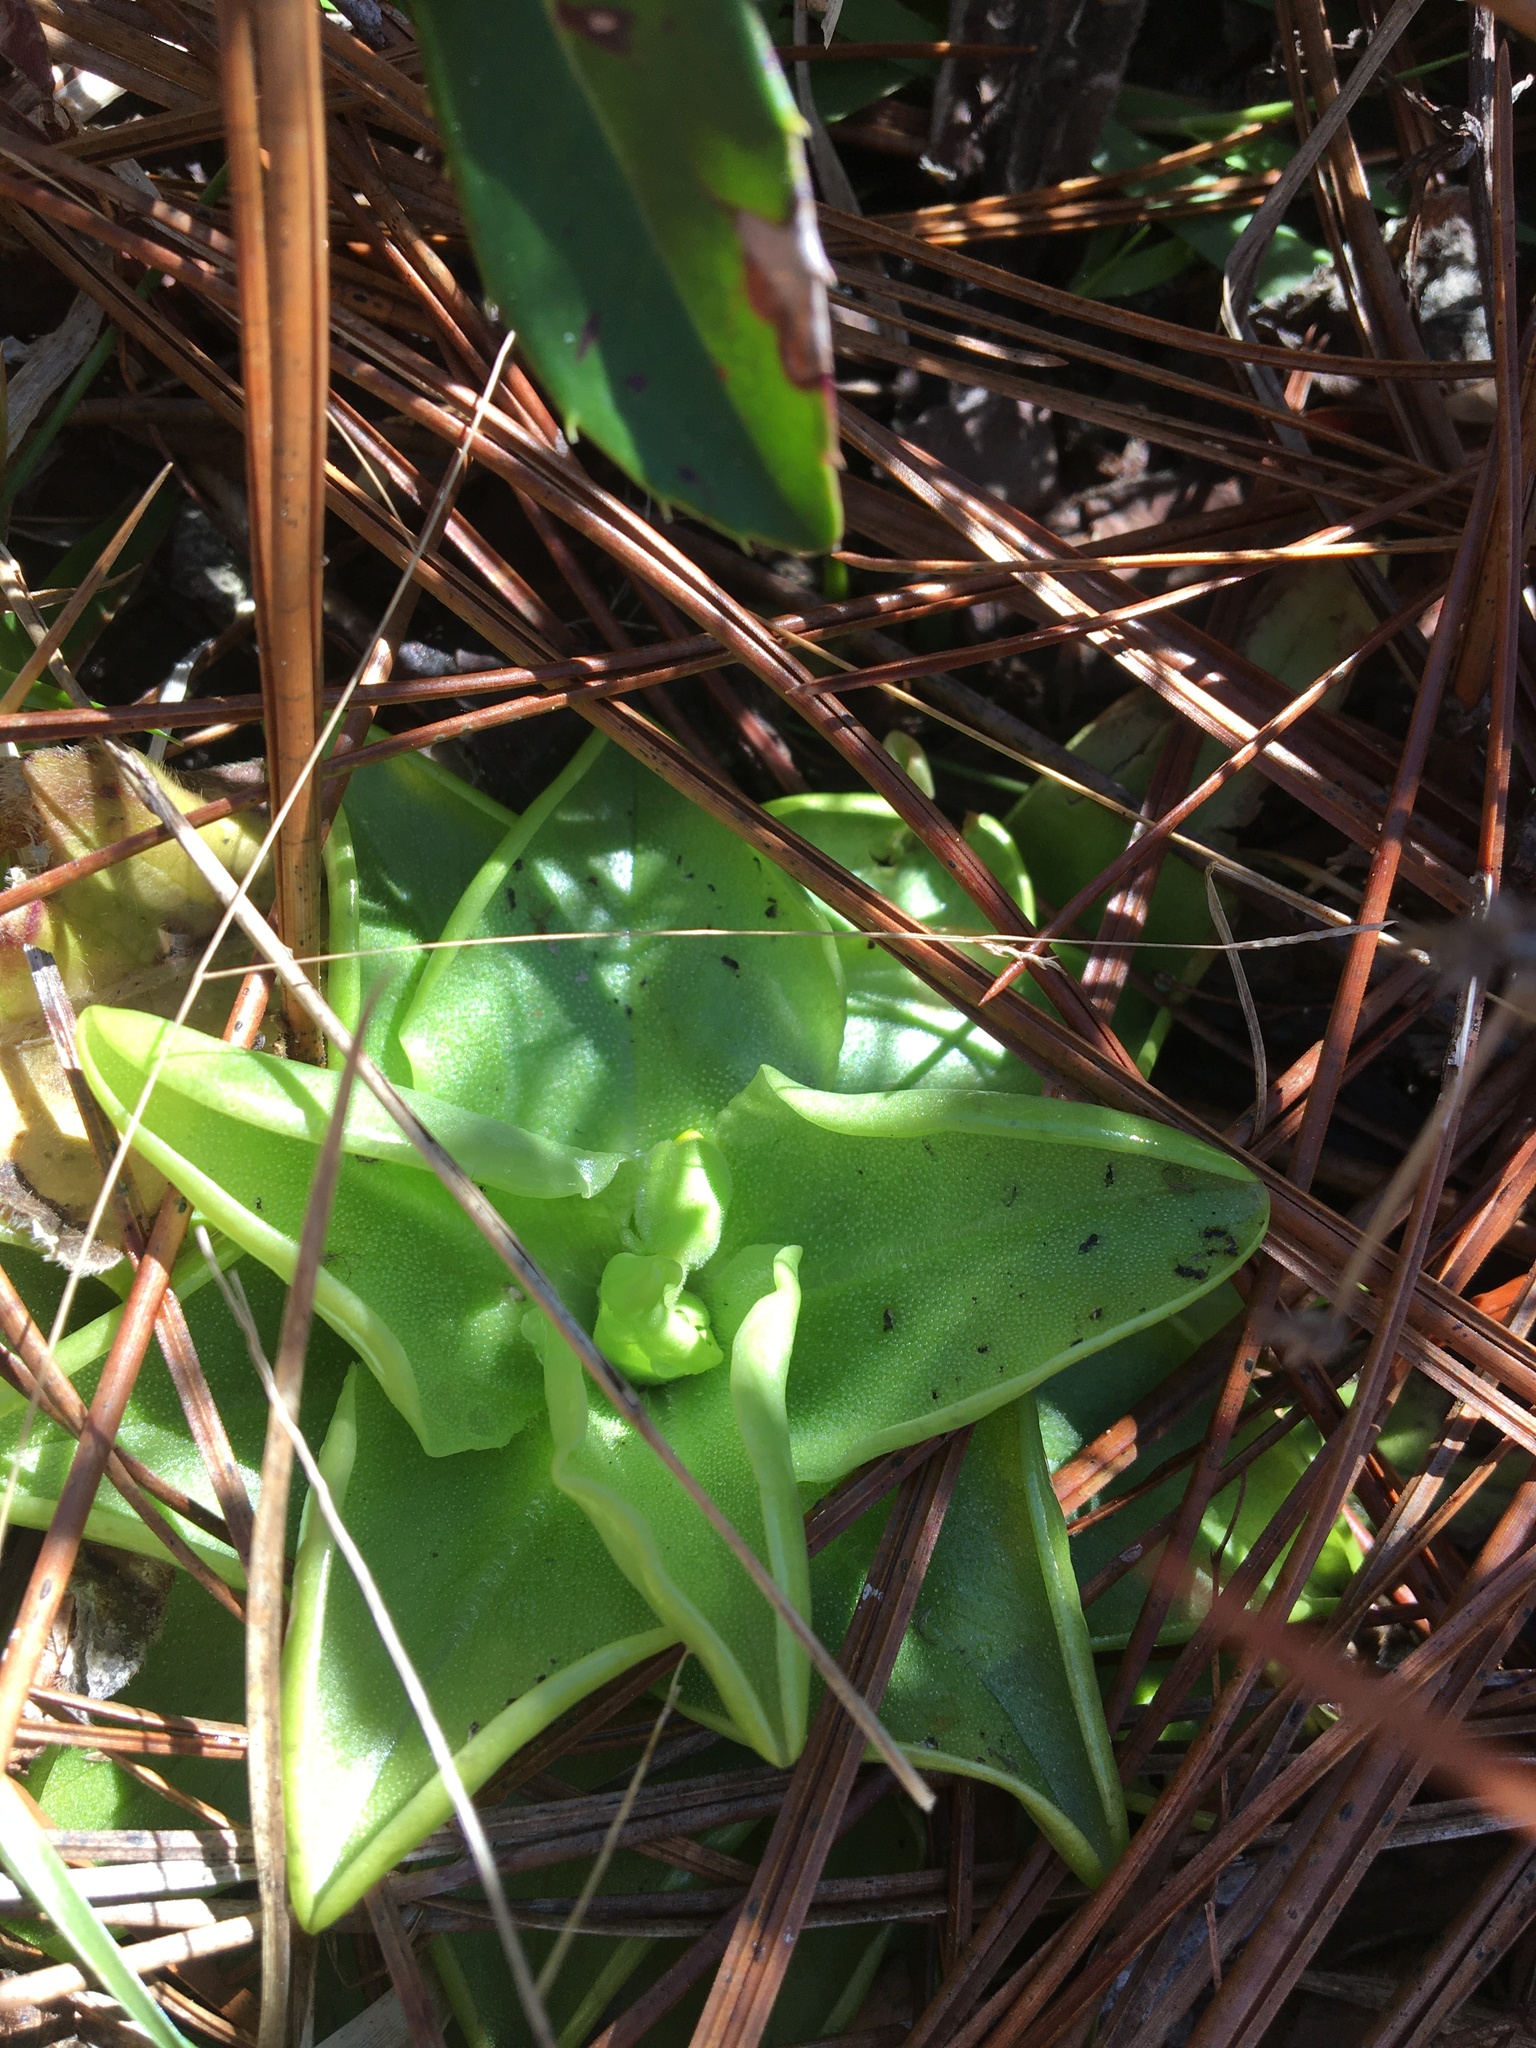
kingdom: Plantae
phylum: Tracheophyta
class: Magnoliopsida
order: Lamiales
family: Lentibulariaceae
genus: Pinguicula
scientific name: Pinguicula lutea
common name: Yellow butterwort
